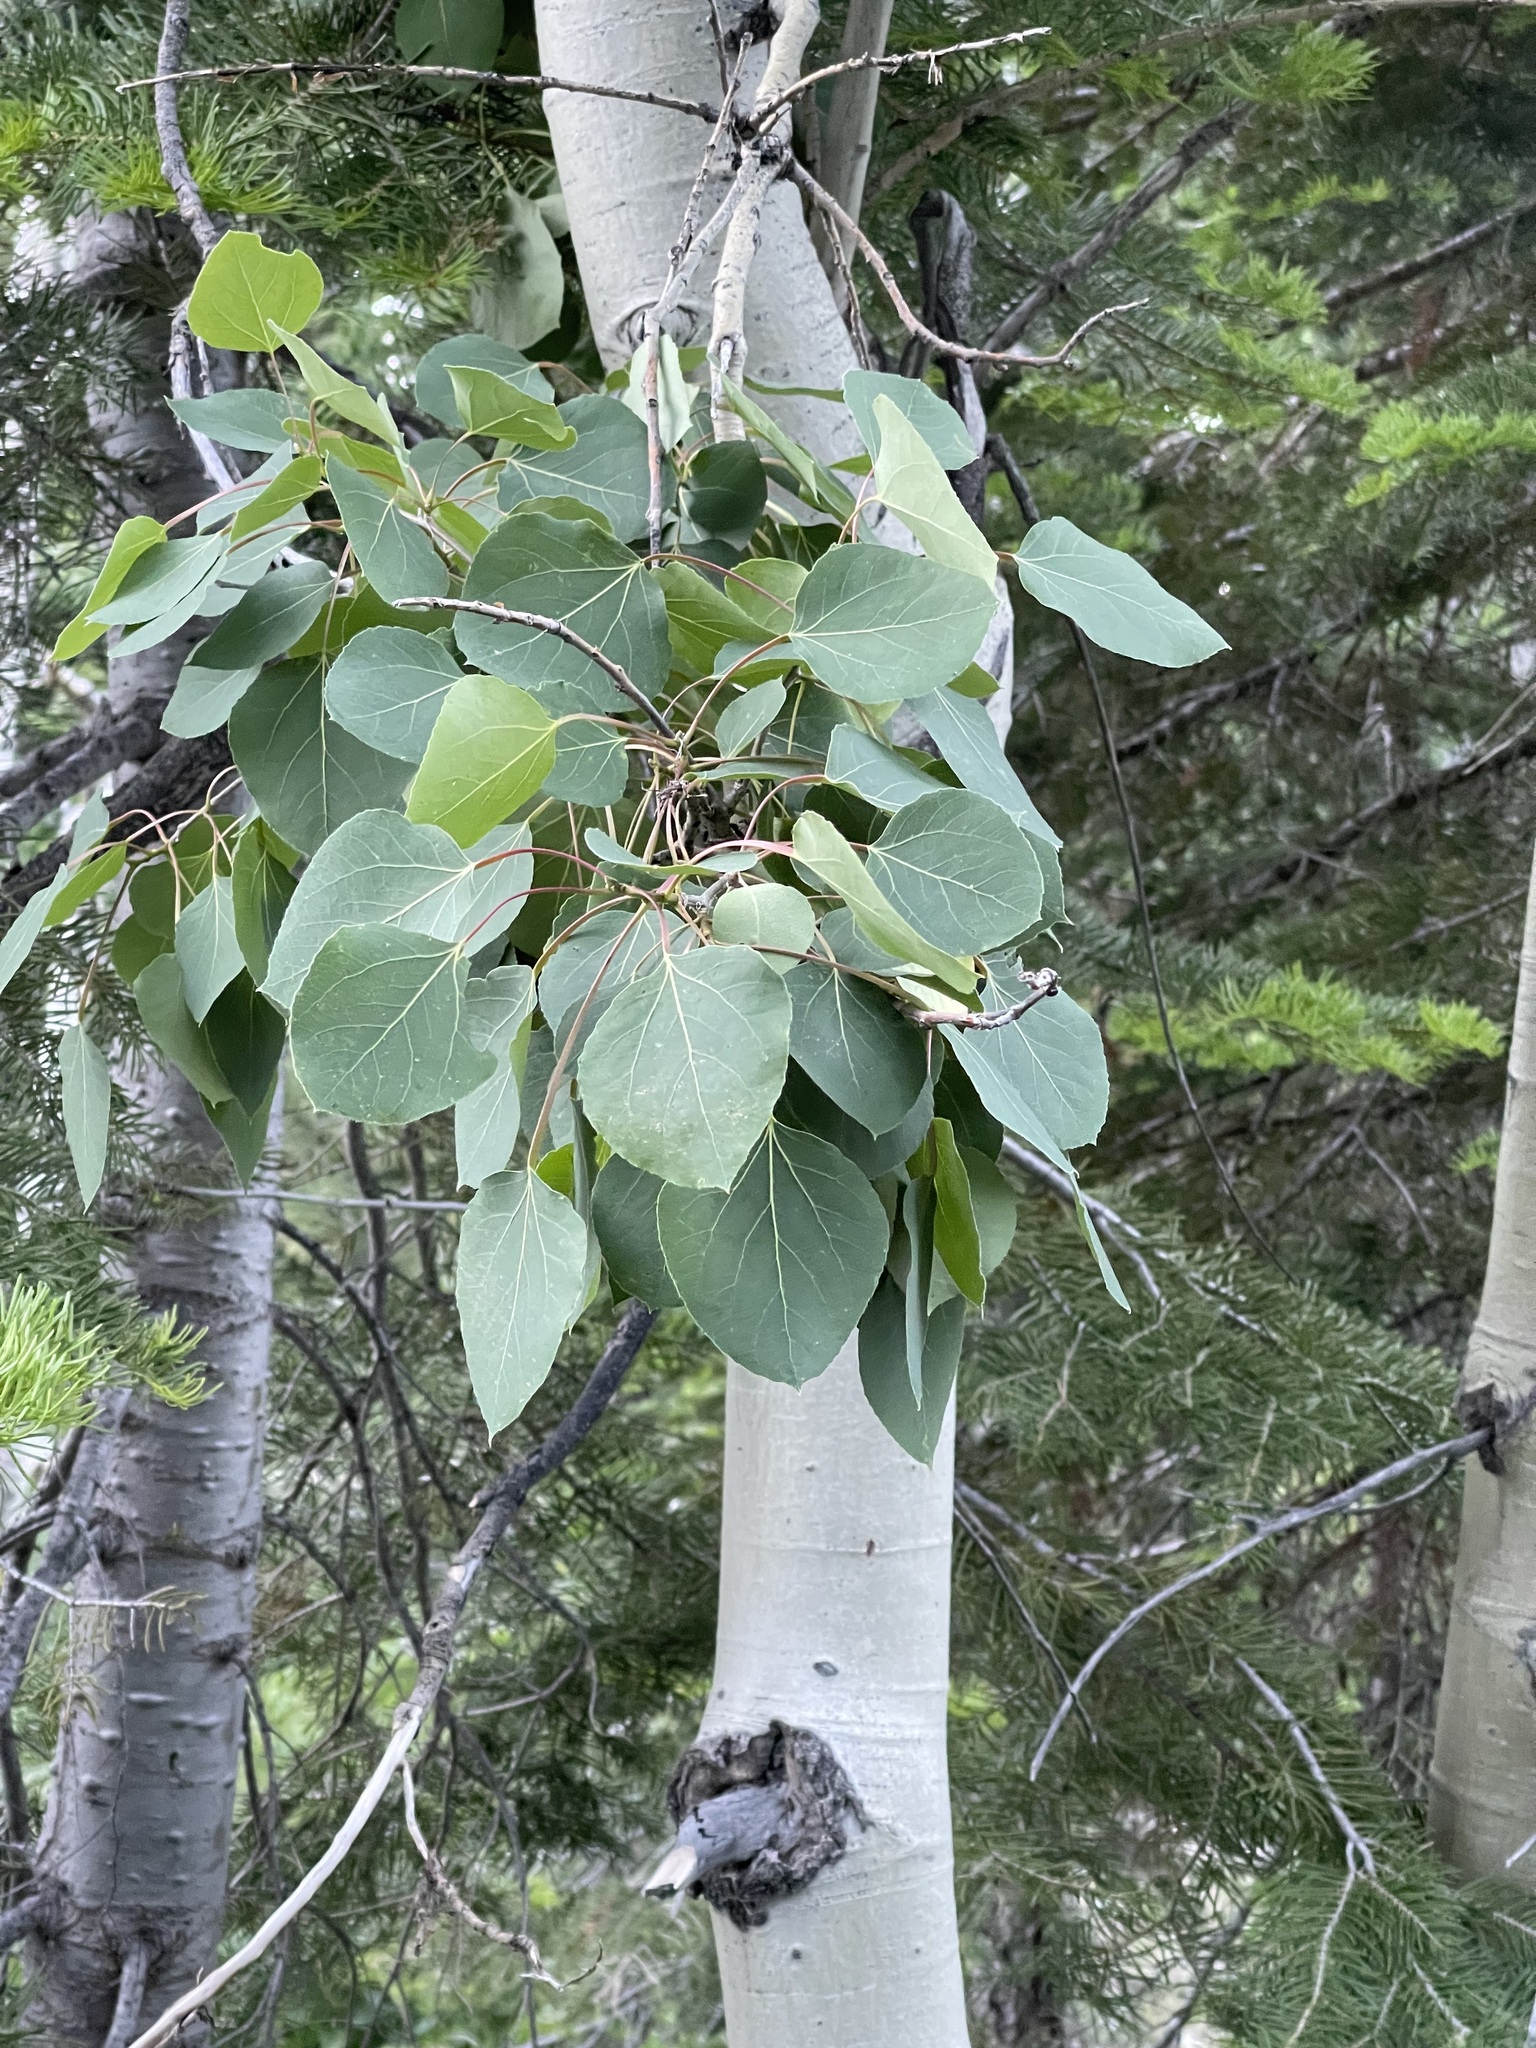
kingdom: Plantae
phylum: Tracheophyta
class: Magnoliopsida
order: Malpighiales
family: Salicaceae
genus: Populus
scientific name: Populus tremuloides
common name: Quaking aspen
